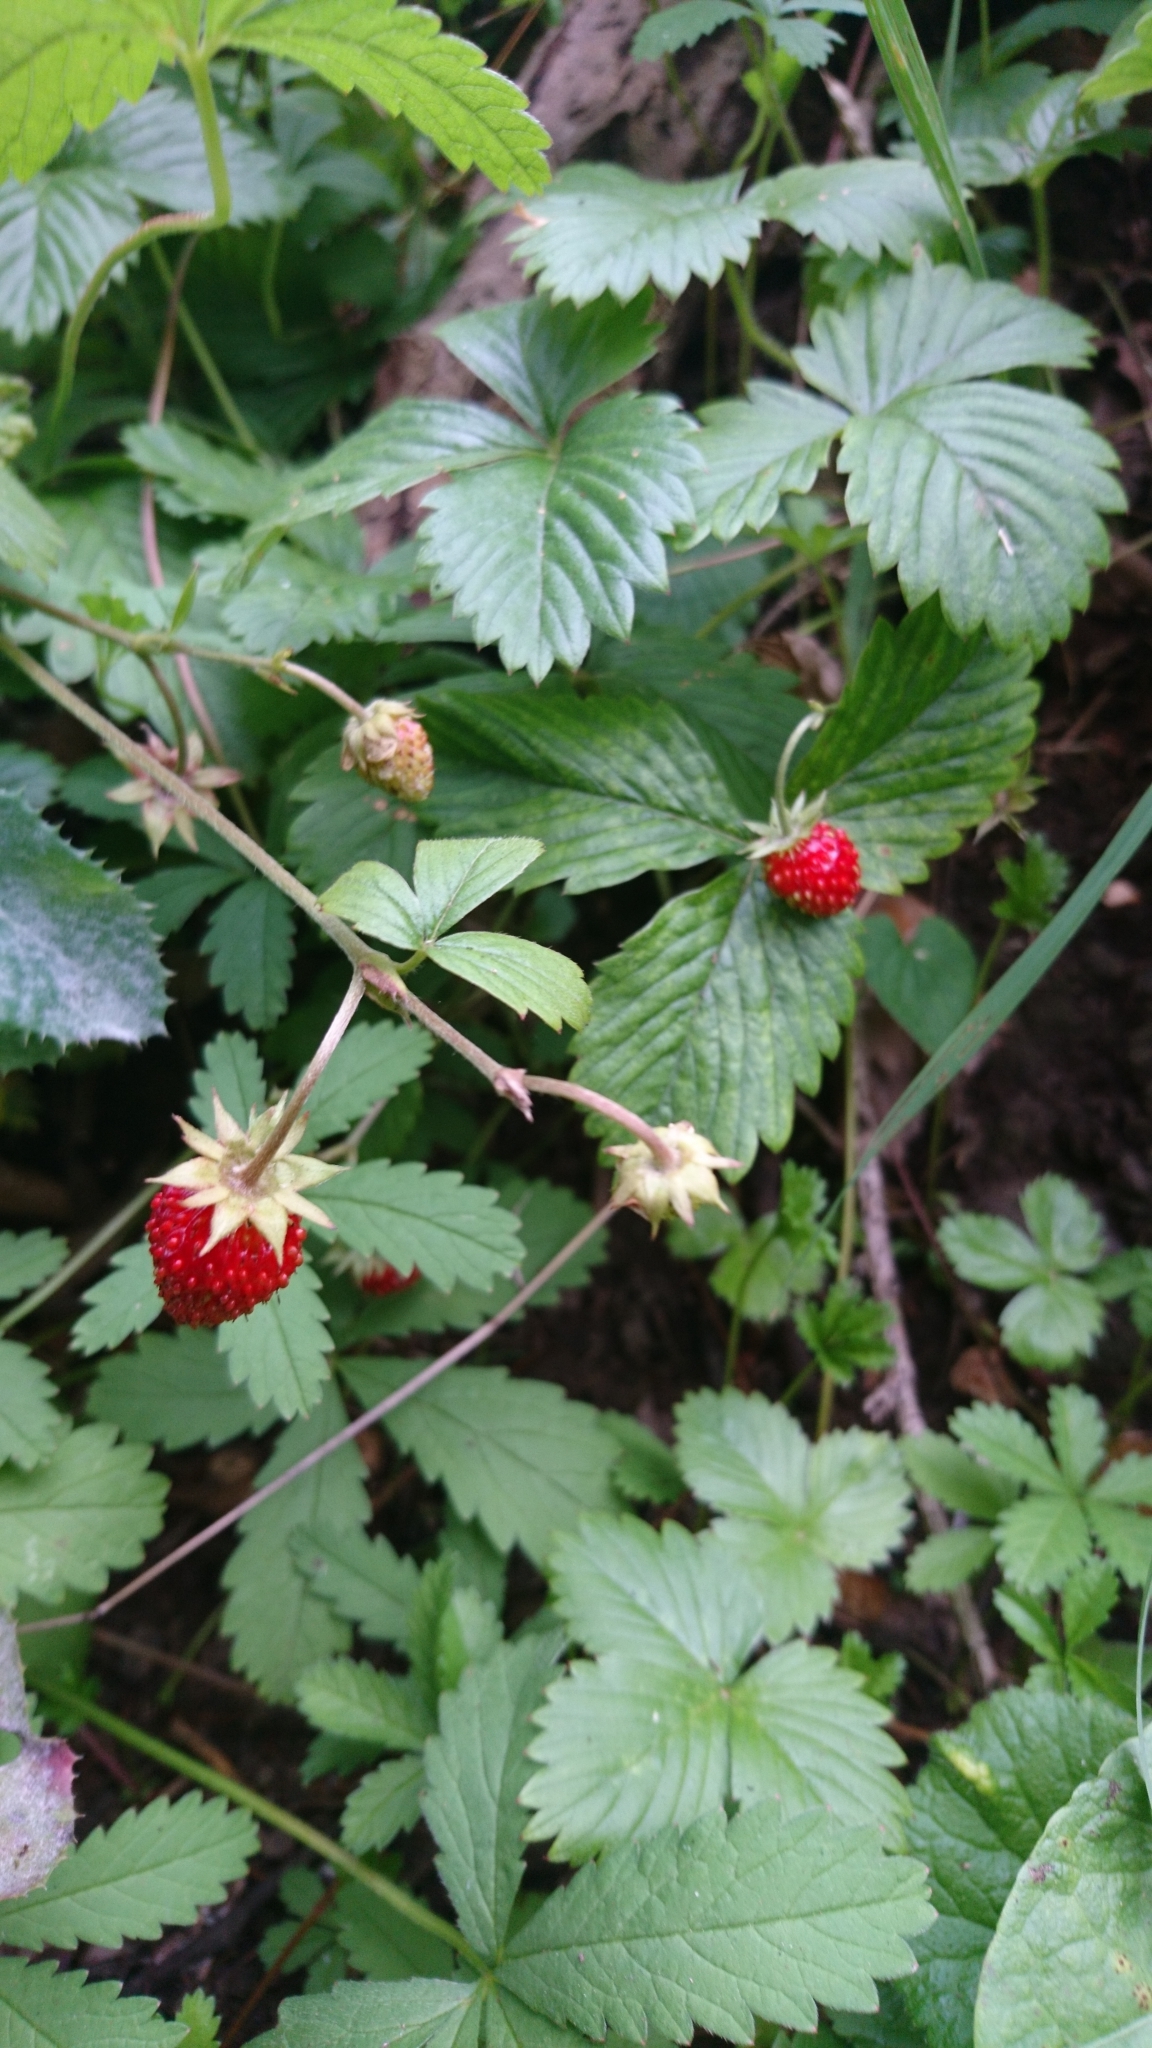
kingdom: Plantae
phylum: Tracheophyta
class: Magnoliopsida
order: Rosales
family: Rosaceae
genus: Fragaria
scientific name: Fragaria vesca
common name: Wild strawberry
